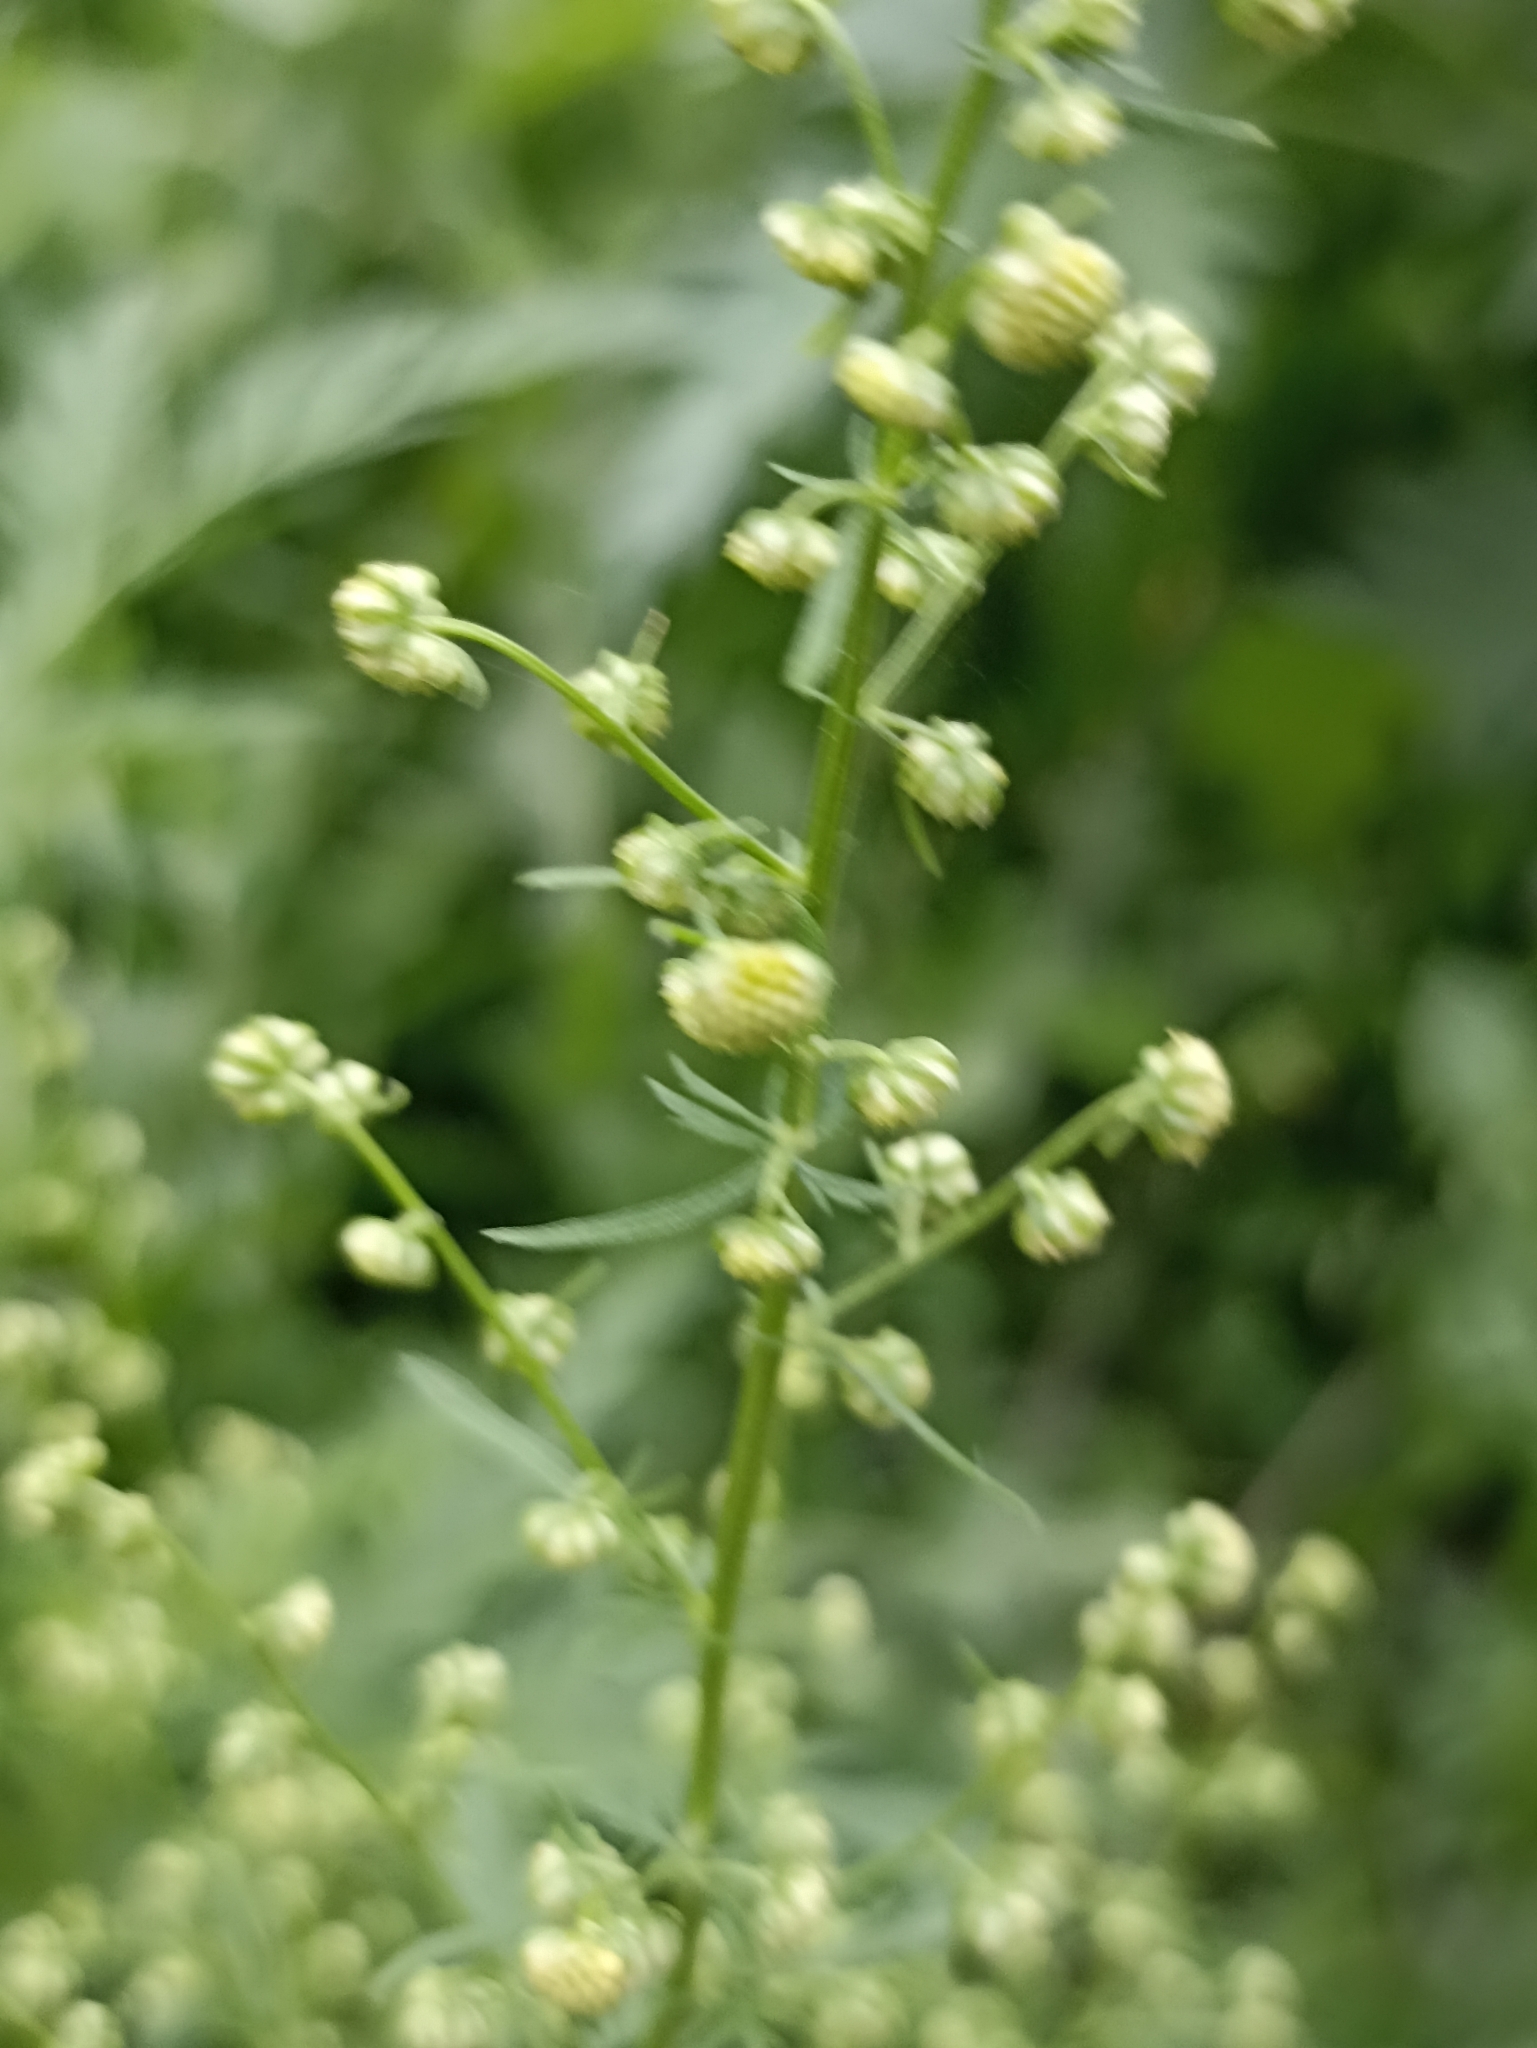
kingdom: Plantae
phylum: Tracheophyta
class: Magnoliopsida
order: Asterales
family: Asteraceae
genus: Artemisia
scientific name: Artemisia annua
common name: Sweet sagewort
